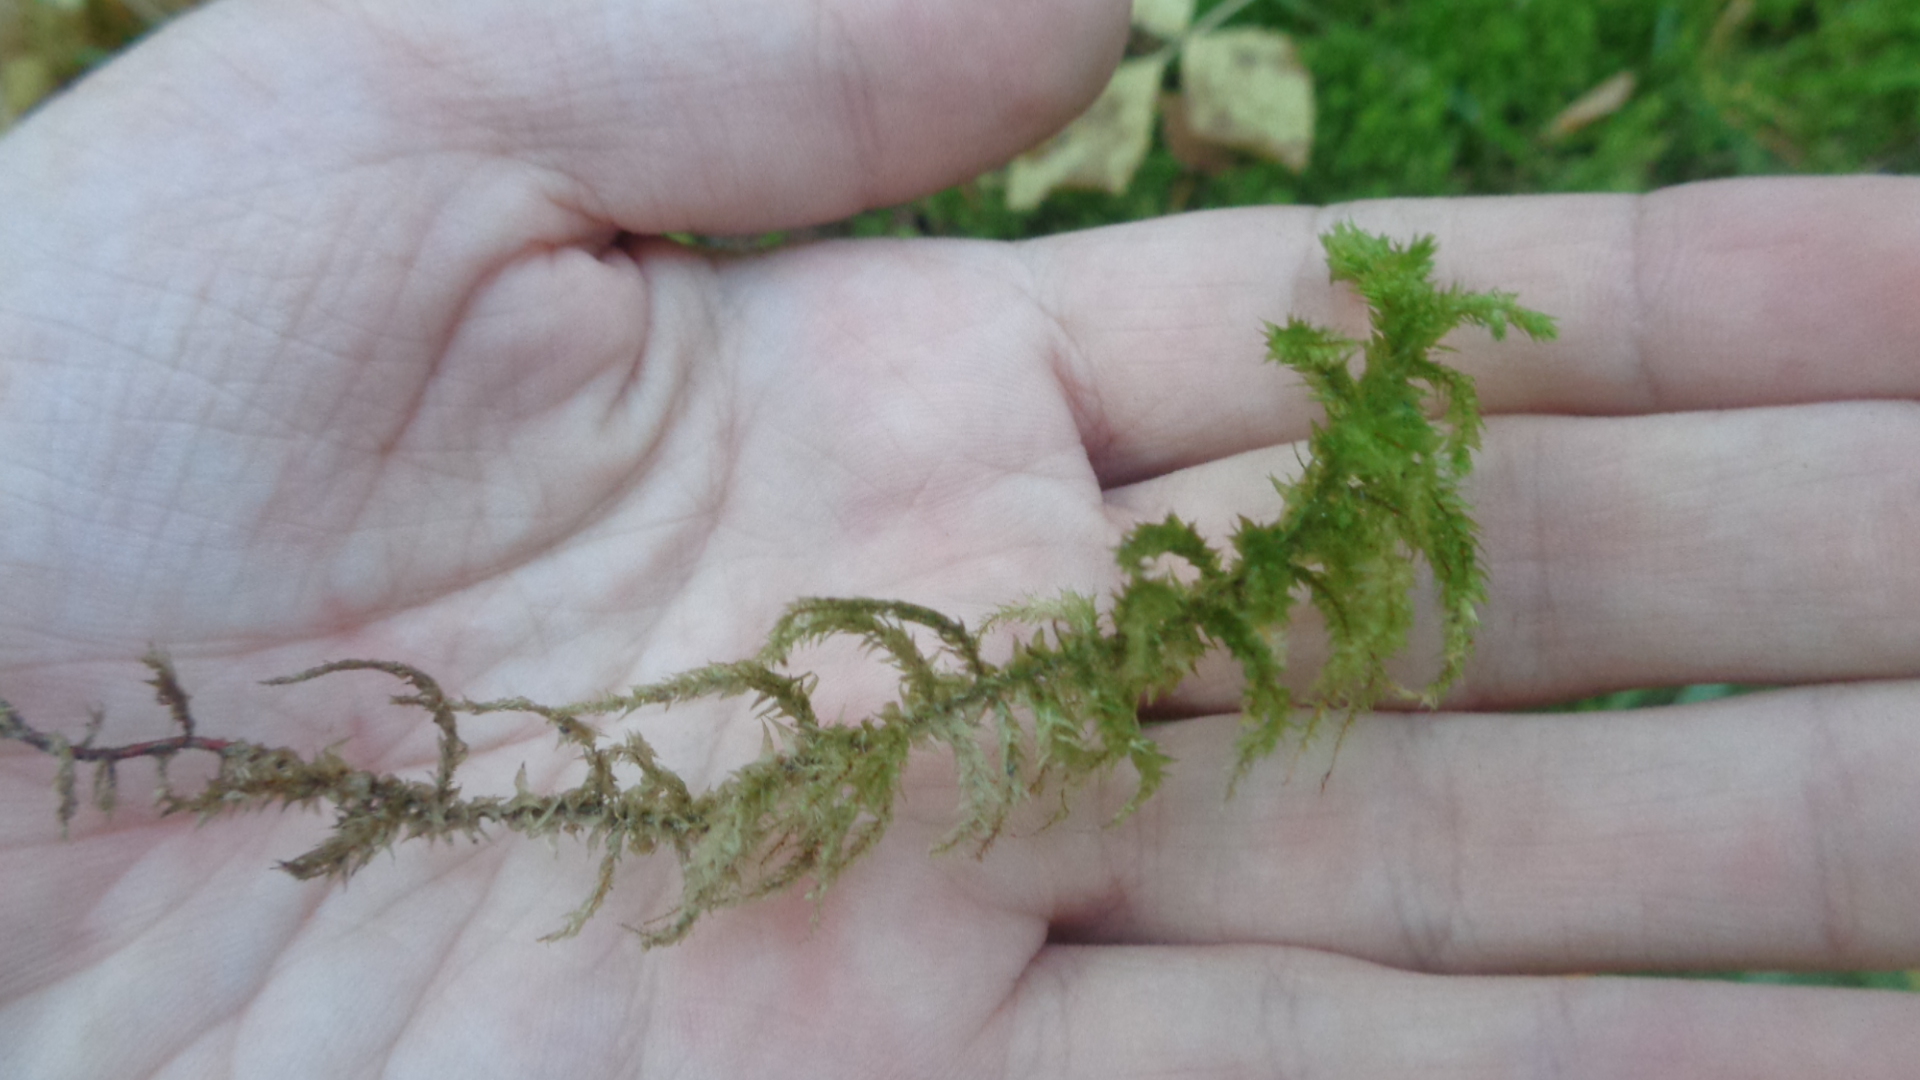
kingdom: Plantae
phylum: Bryophyta
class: Bryopsida
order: Hypnales
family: Hylocomiaceae
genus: Hylocomiadelphus
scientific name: Hylocomiadelphus triquetrus
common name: Rough goose neck moss
